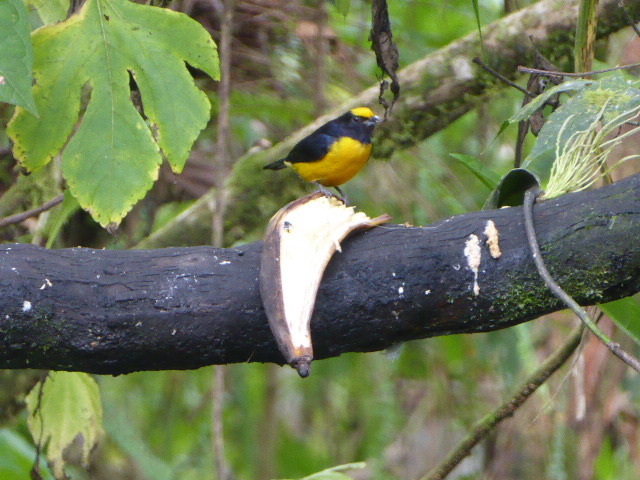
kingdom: Animalia
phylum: Chordata
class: Aves
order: Passeriformes
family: Fringillidae
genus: Euphonia
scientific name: Euphonia xanthogaster
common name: Orange-bellied euphonia
